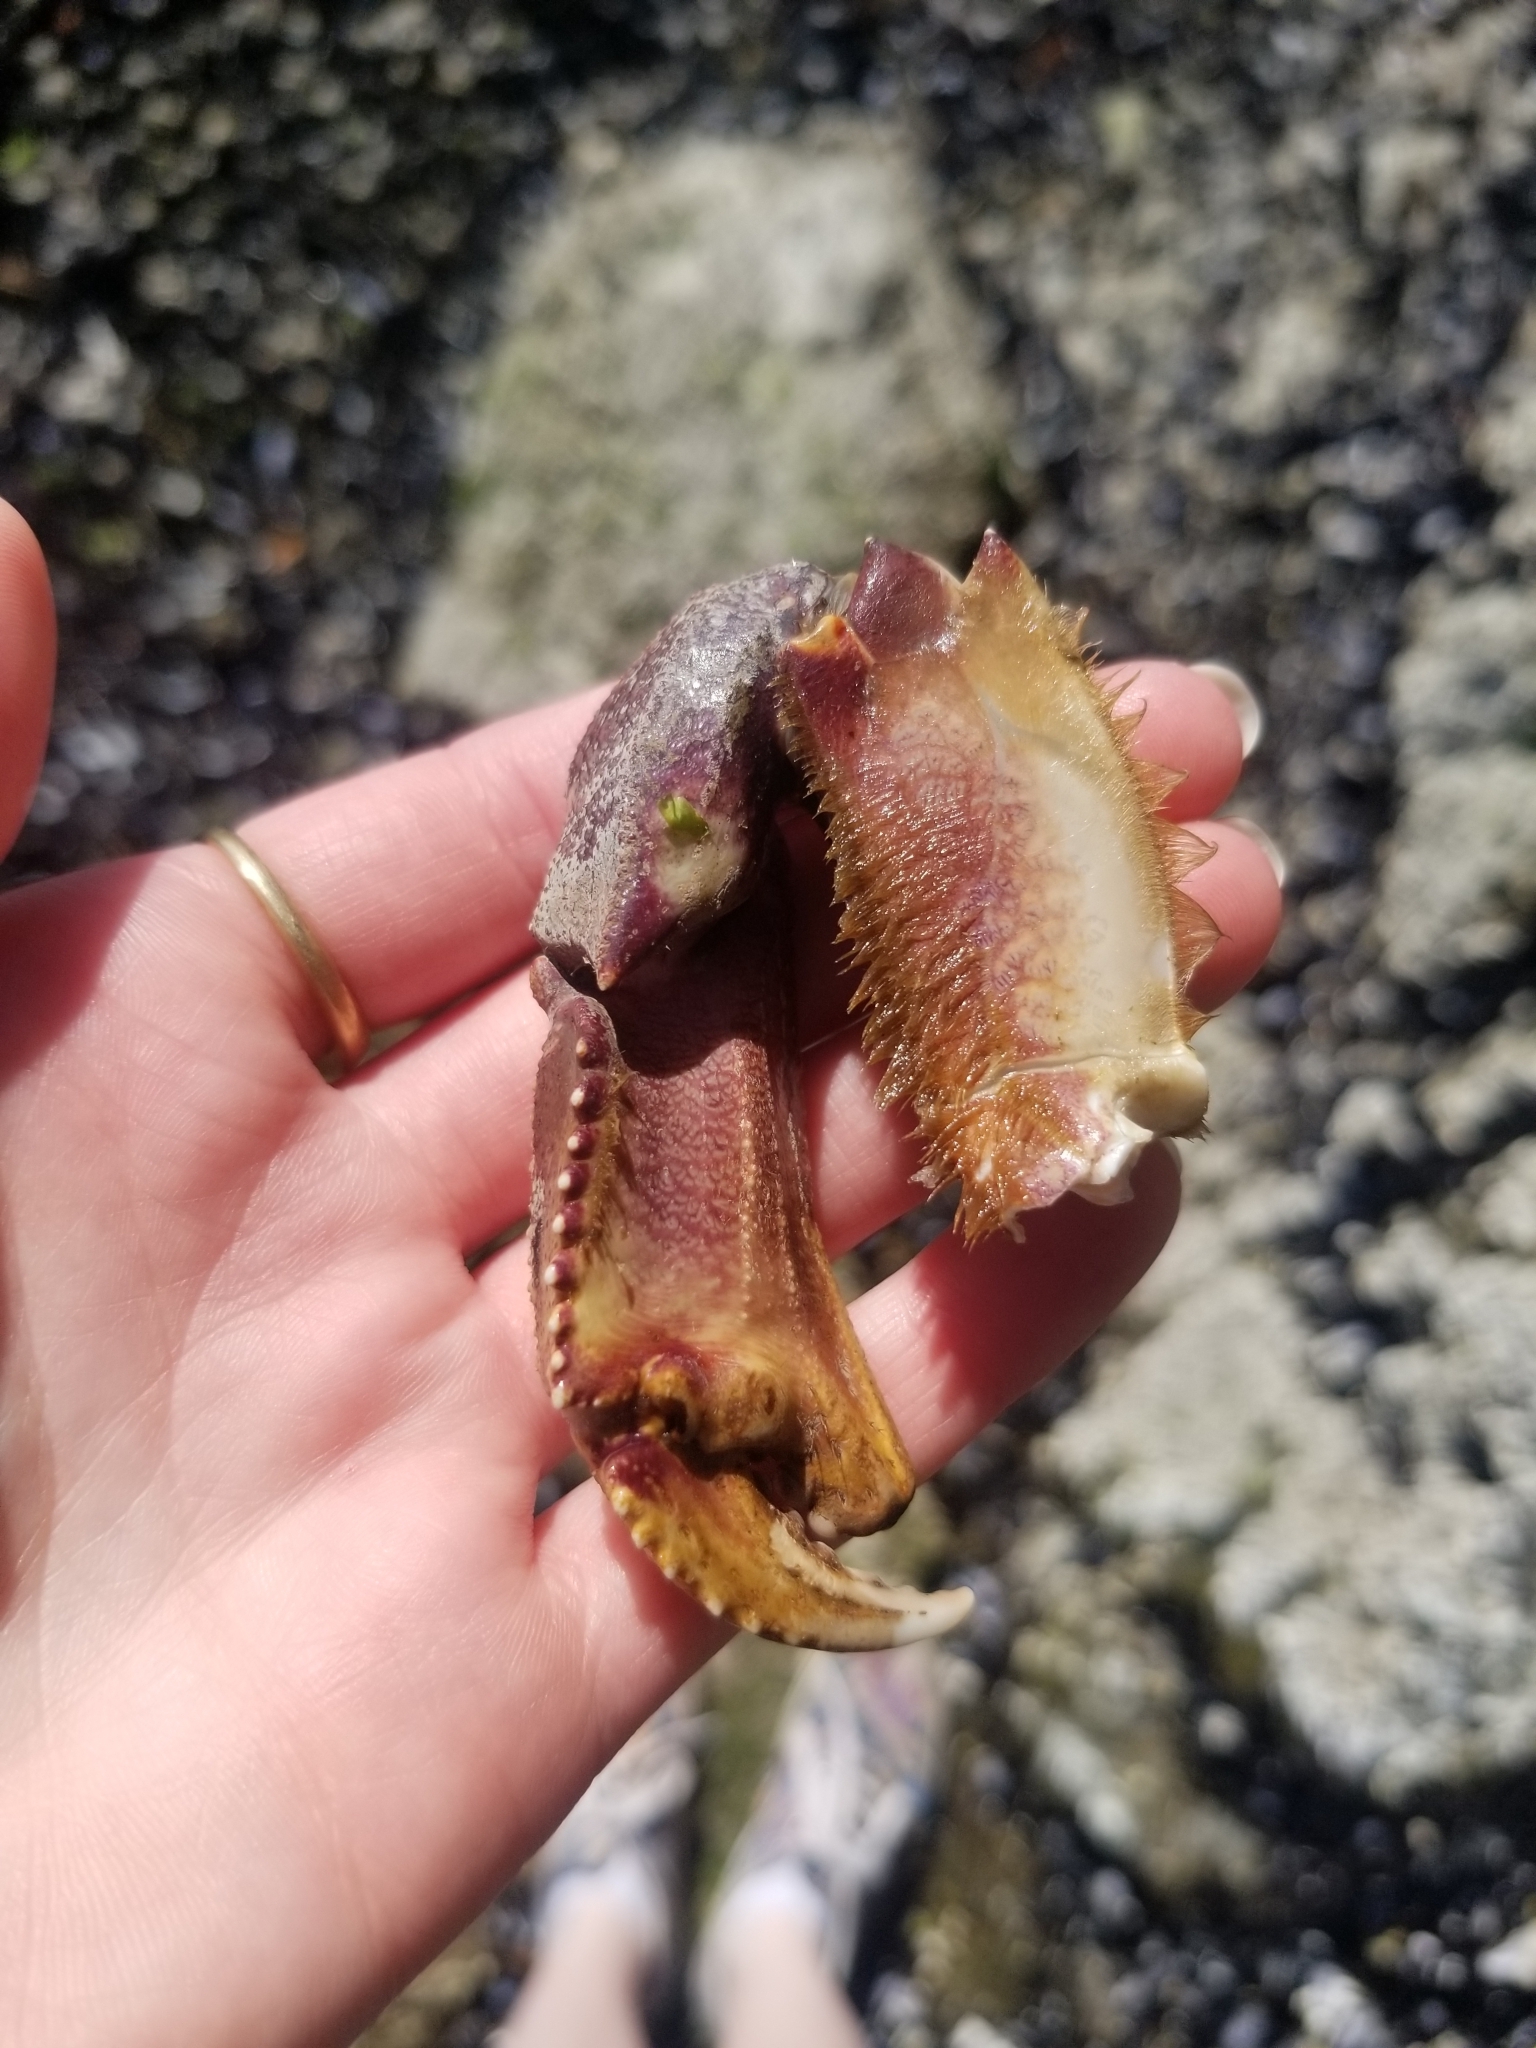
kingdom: Animalia
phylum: Arthropoda
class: Malacostraca
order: Decapoda
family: Cancridae
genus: Metacarcinus
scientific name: Metacarcinus magister
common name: Californian crab
